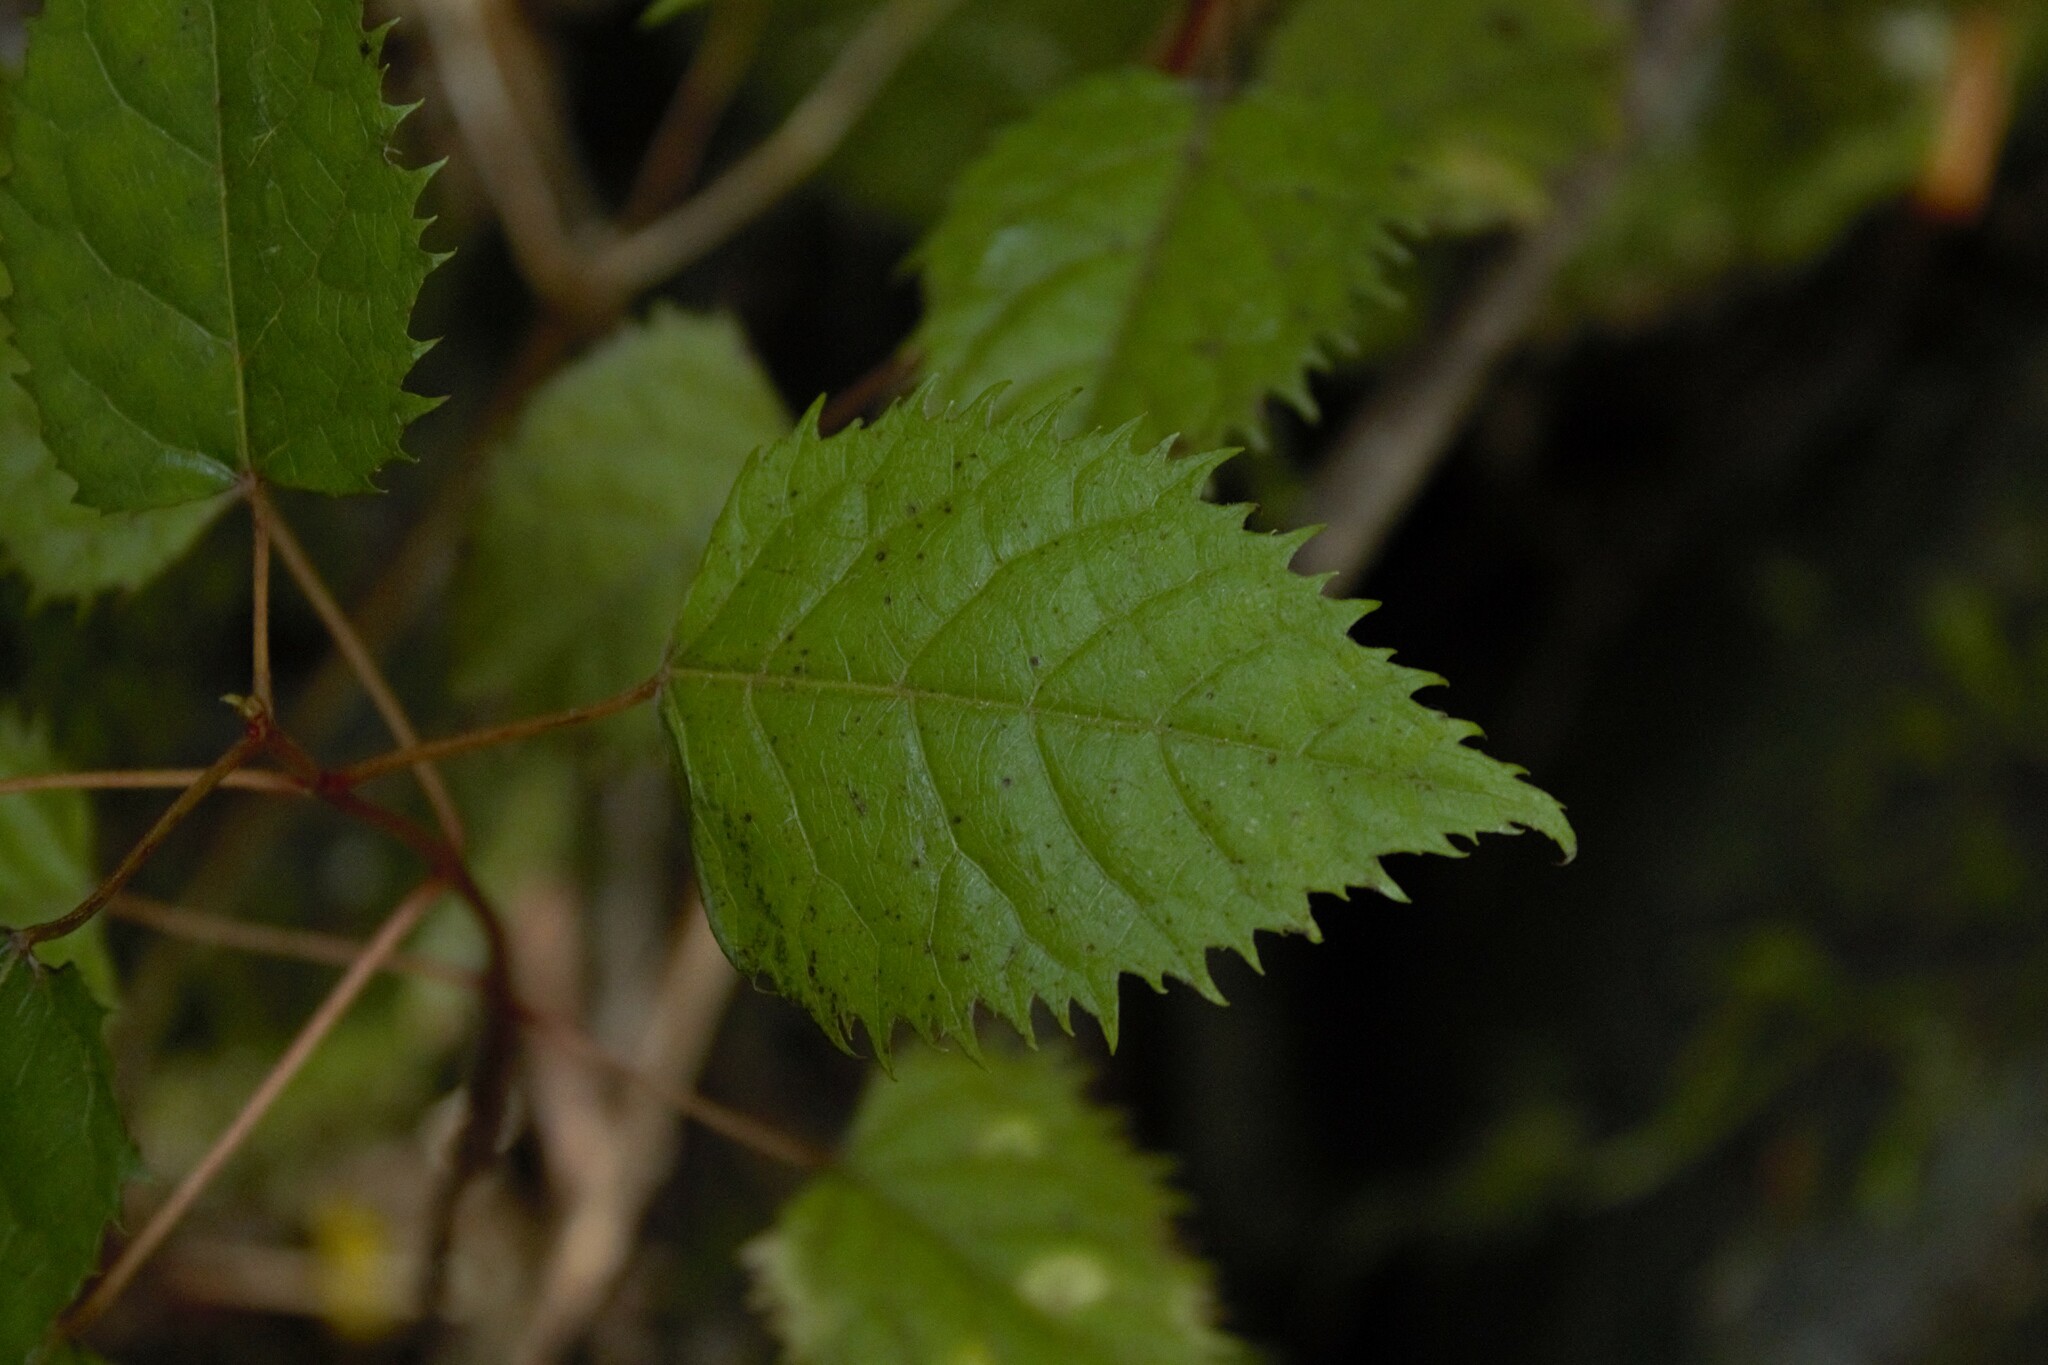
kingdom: Plantae
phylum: Tracheophyta
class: Magnoliopsida
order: Oxalidales
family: Elaeocarpaceae
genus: Aristotelia
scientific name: Aristotelia serrata
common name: New zealand wineberry
